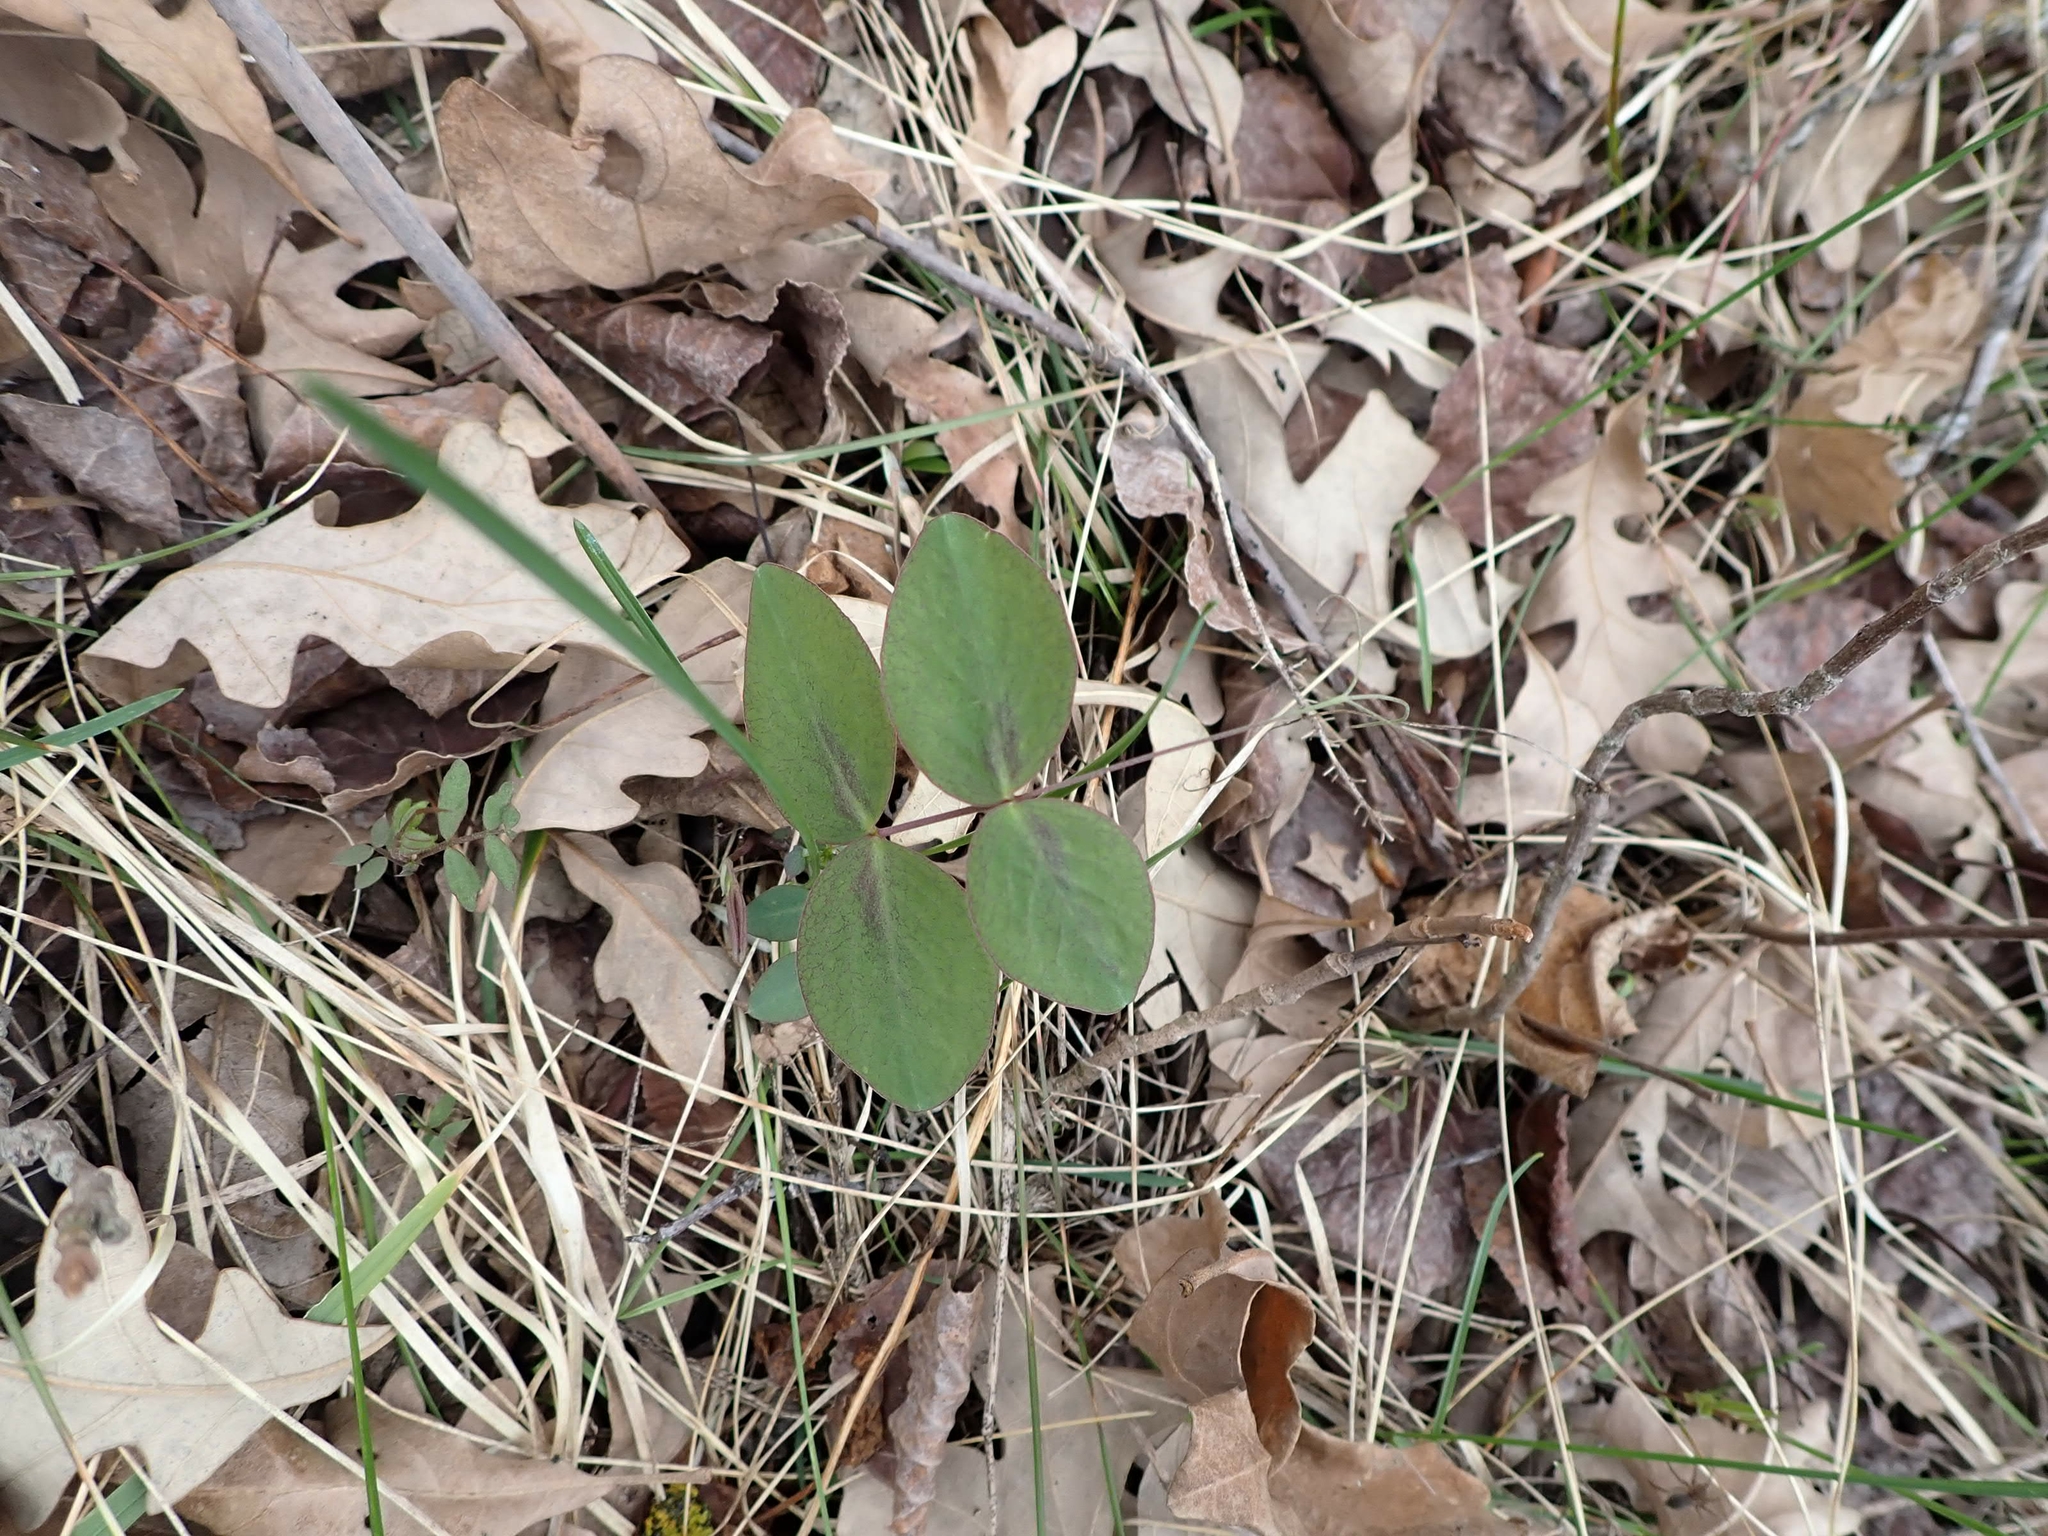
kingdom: Plantae
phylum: Tracheophyta
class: Magnoliopsida
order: Fabales
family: Fabaceae
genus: Lathyrus
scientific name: Lathyrus venosus
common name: Forest-pea
